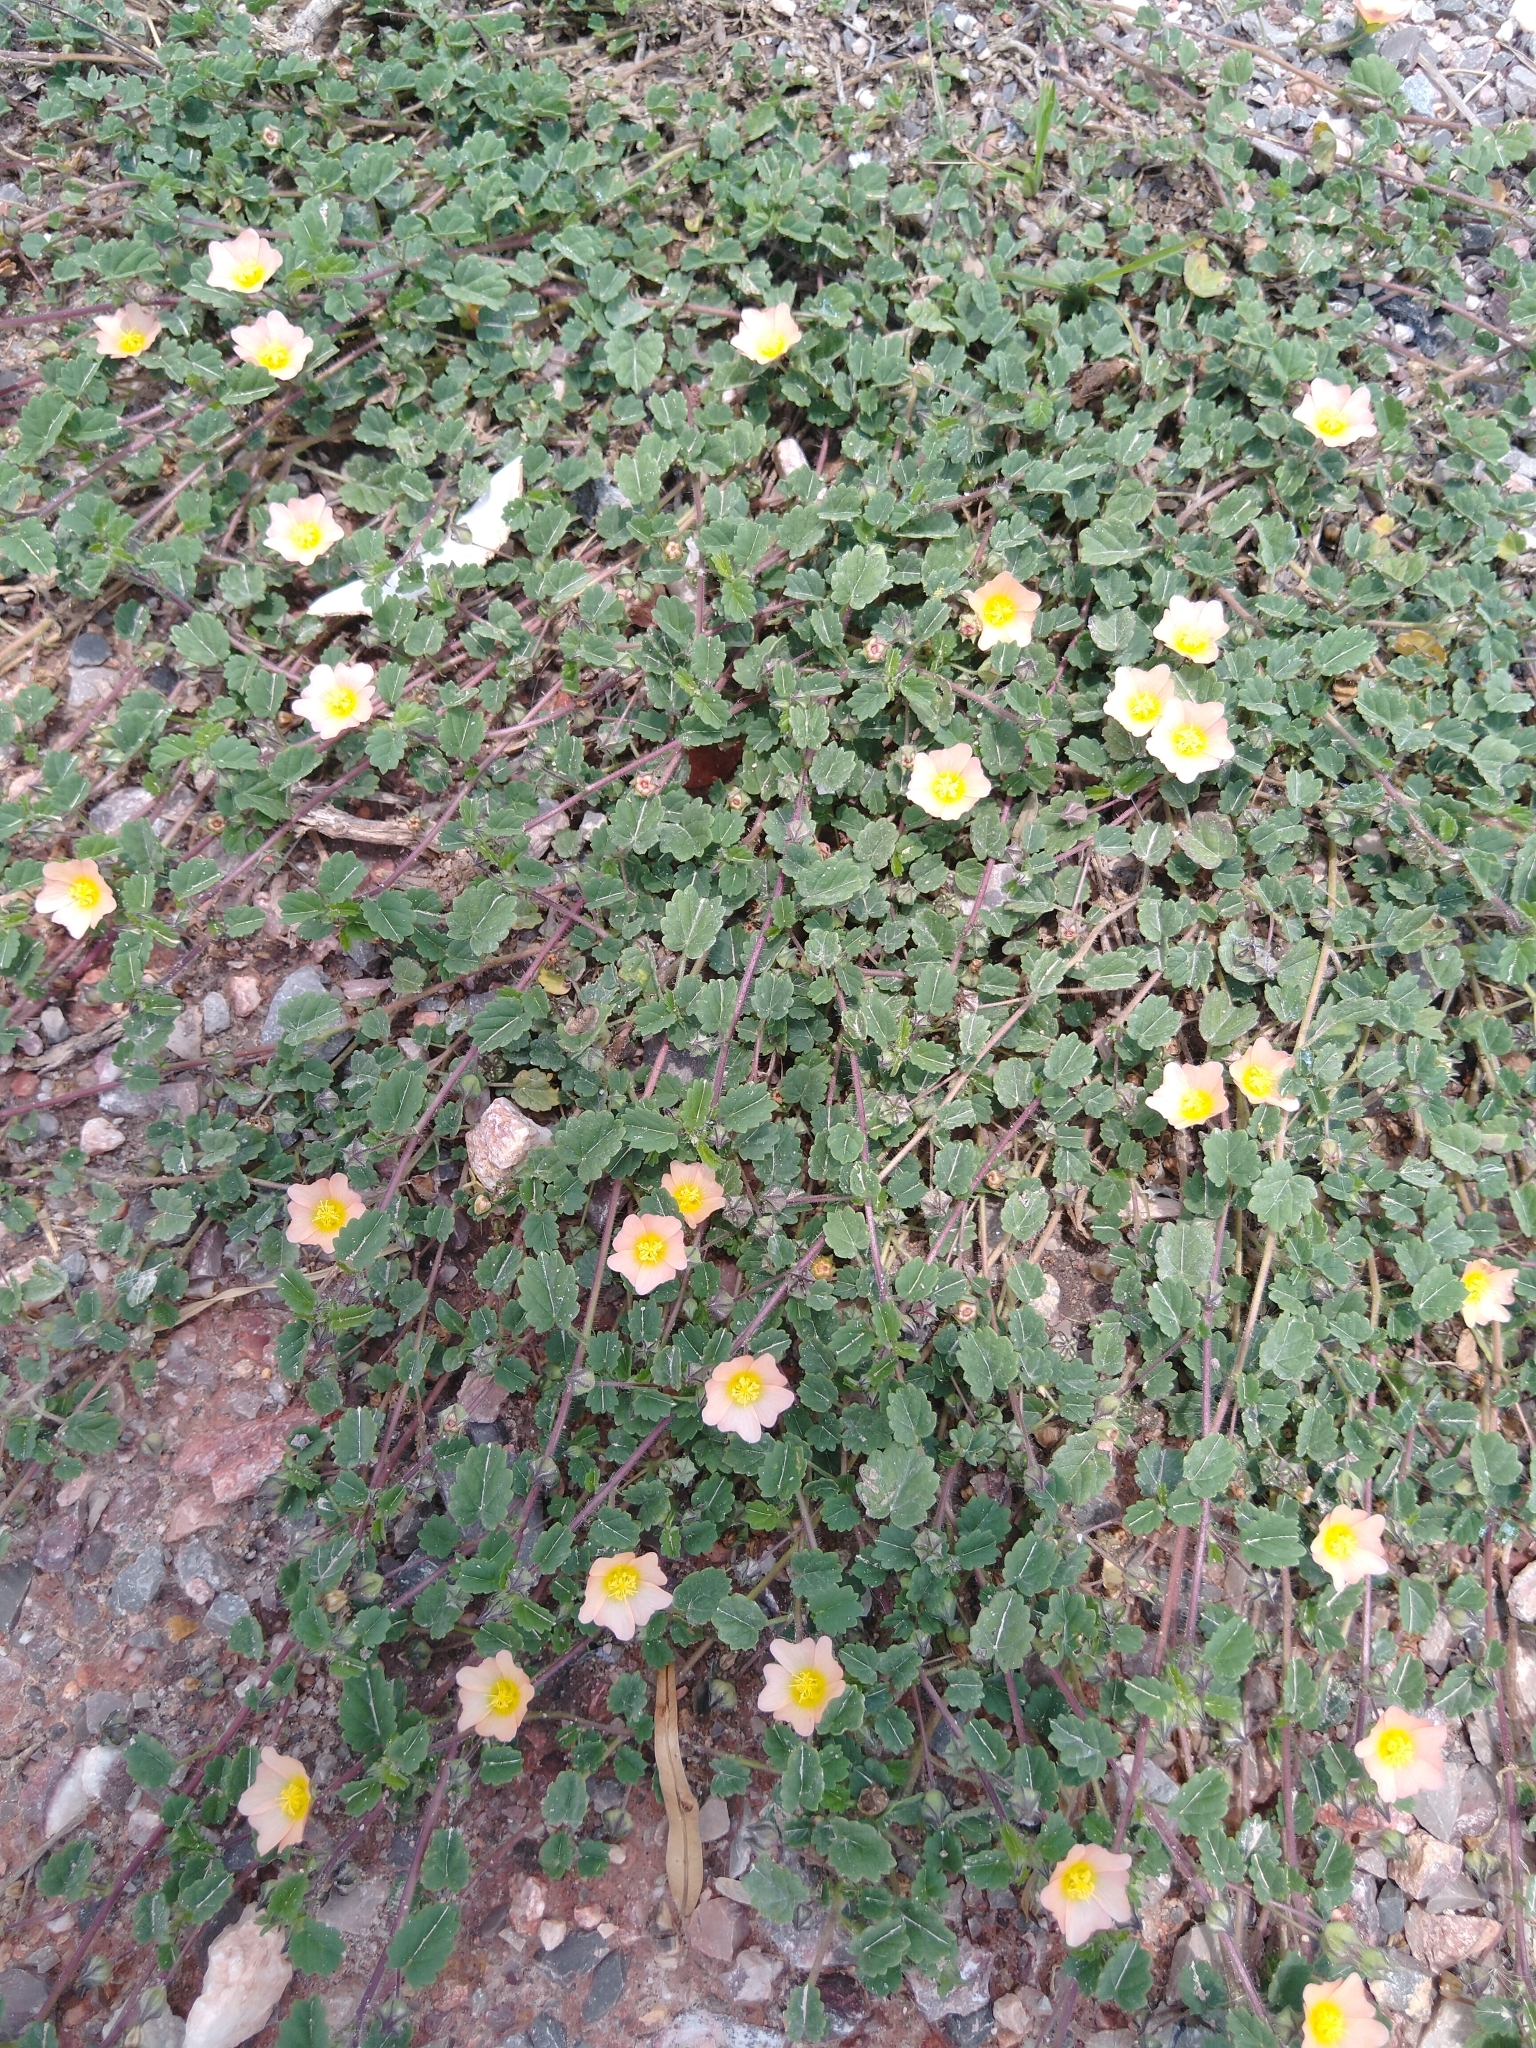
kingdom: Plantae
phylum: Tracheophyta
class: Magnoliopsida
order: Malvales
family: Malvaceae
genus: Sida
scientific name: Sida abutilifolia
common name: Spreading fanpetals
